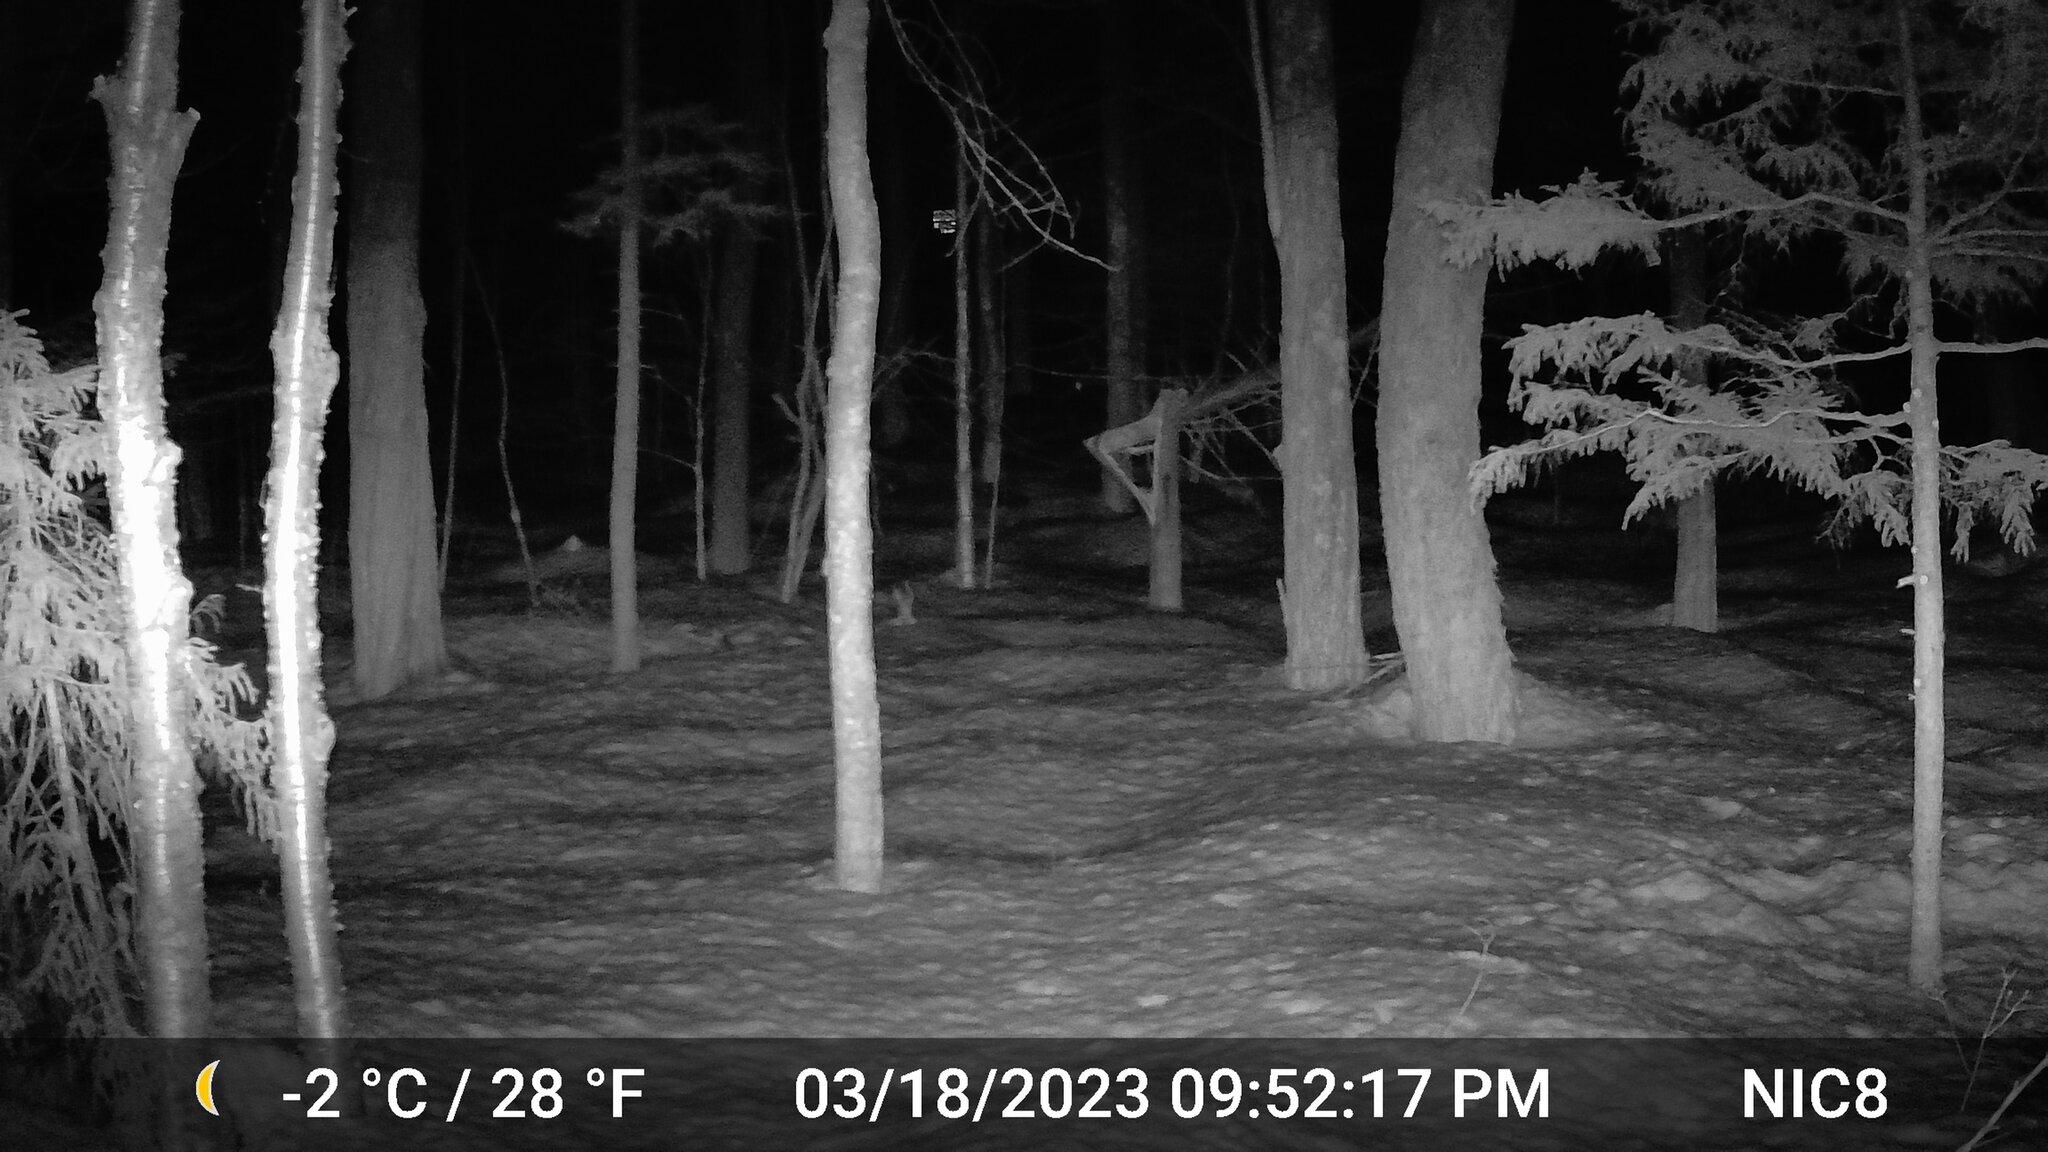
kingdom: Animalia
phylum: Chordata
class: Mammalia
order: Carnivora
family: Canidae
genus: Vulpes
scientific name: Vulpes vulpes
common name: Red fox
